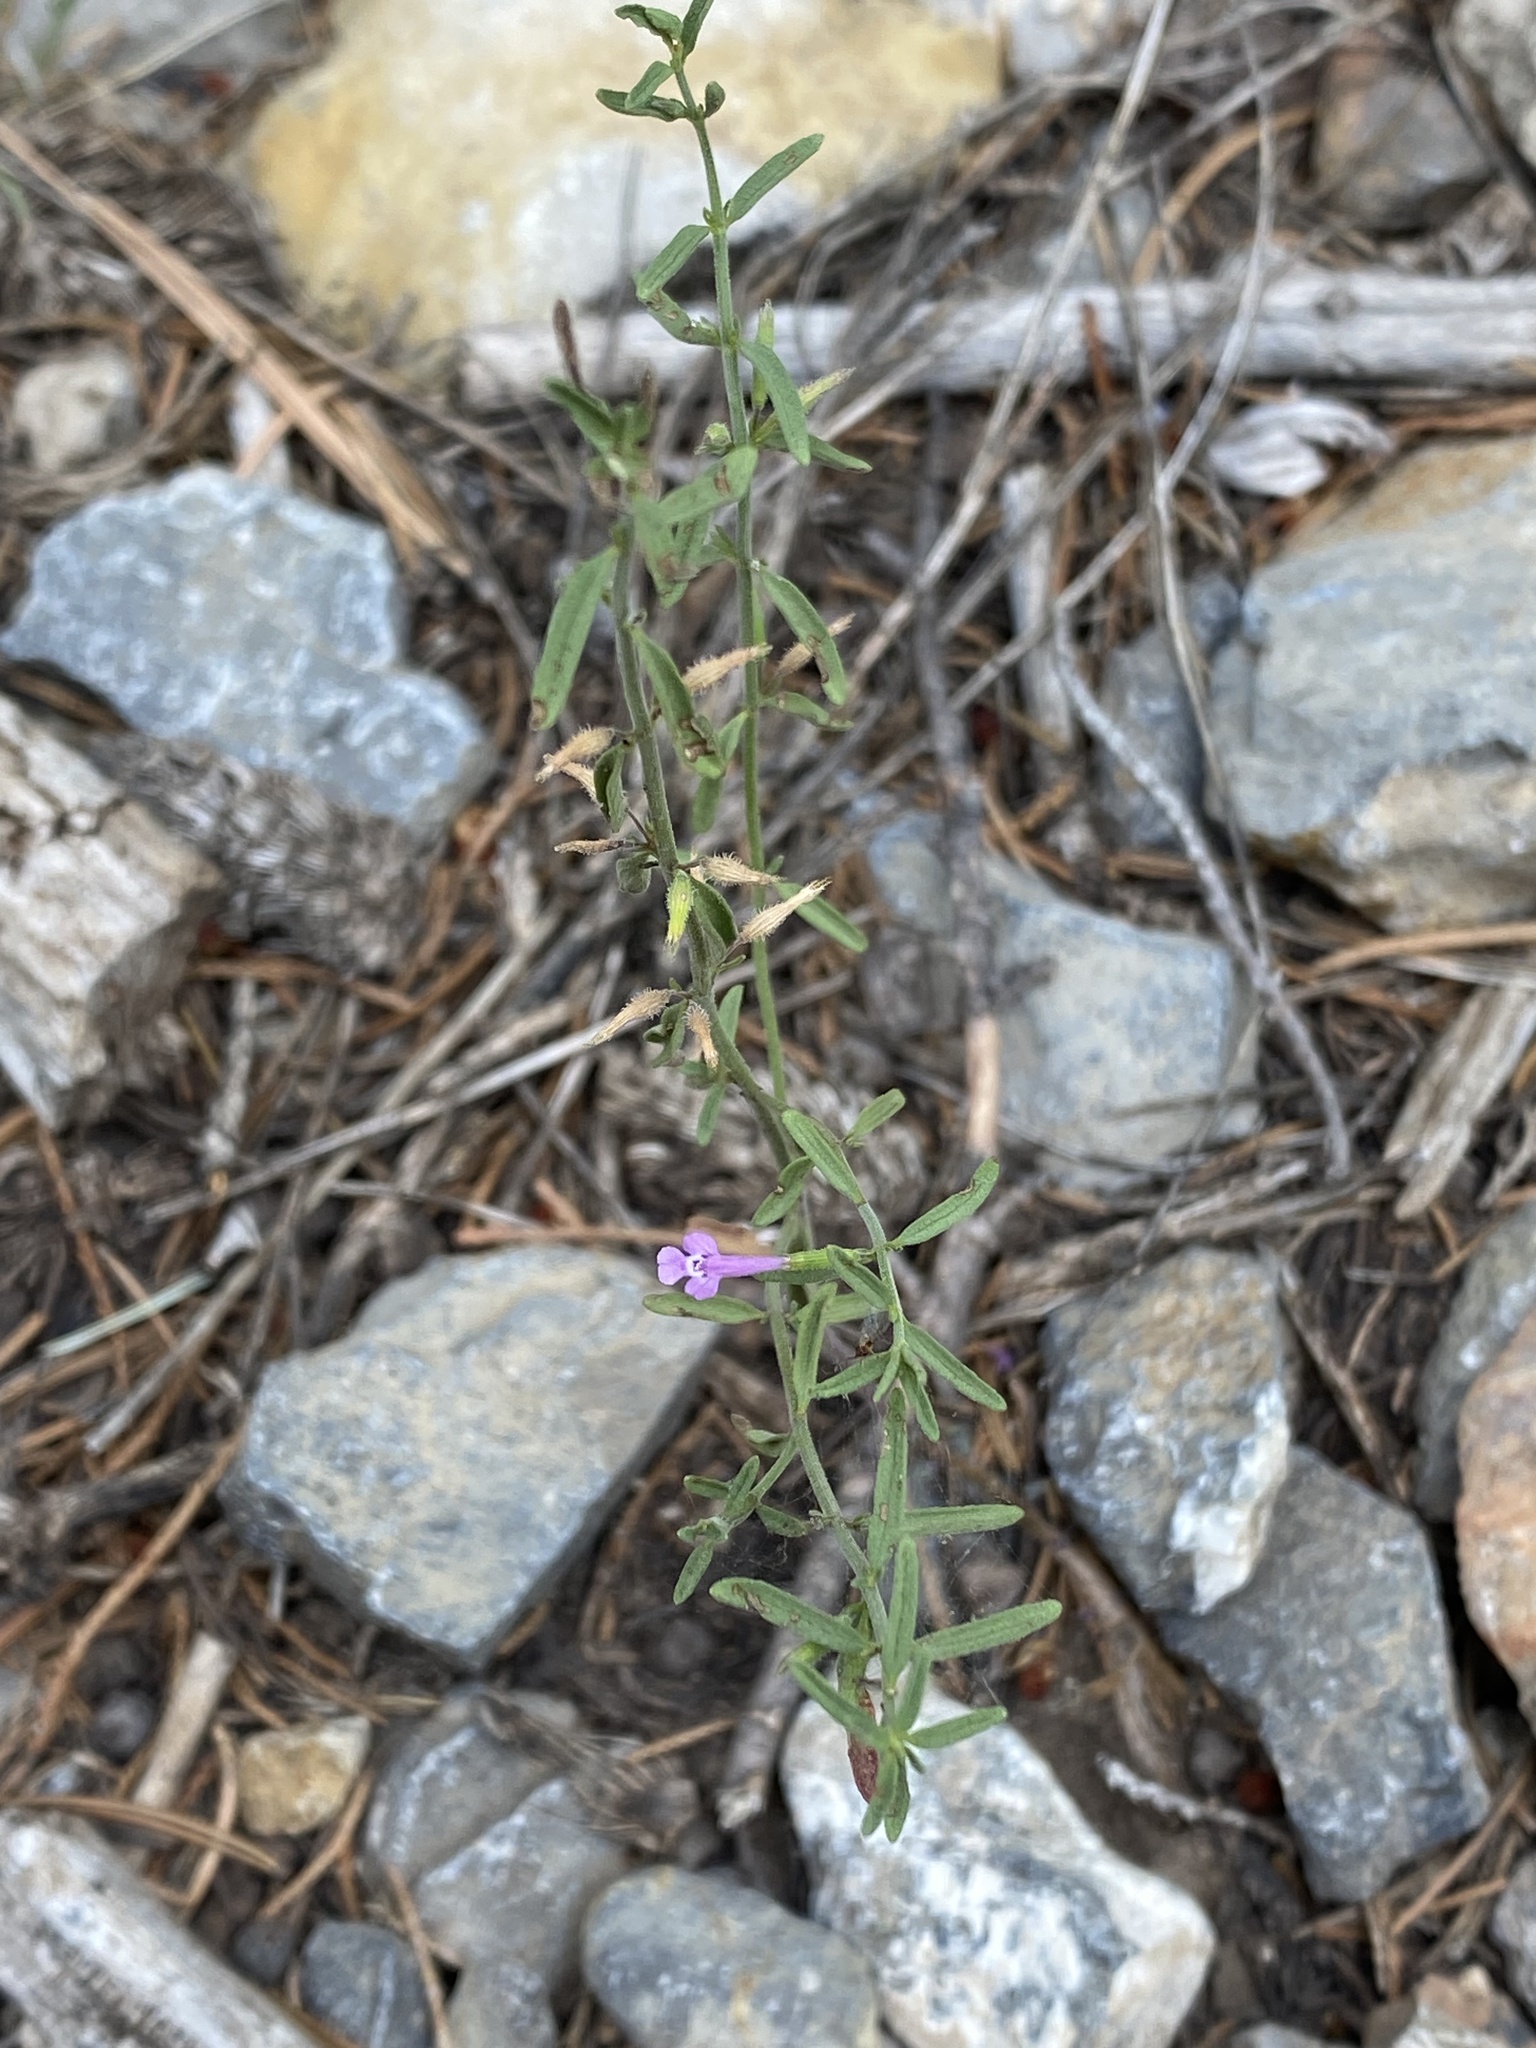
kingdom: Plantae
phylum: Tracheophyta
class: Magnoliopsida
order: Lamiales
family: Lamiaceae
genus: Hedeoma
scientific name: Hedeoma drummondii
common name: New mexico pennyroyal
